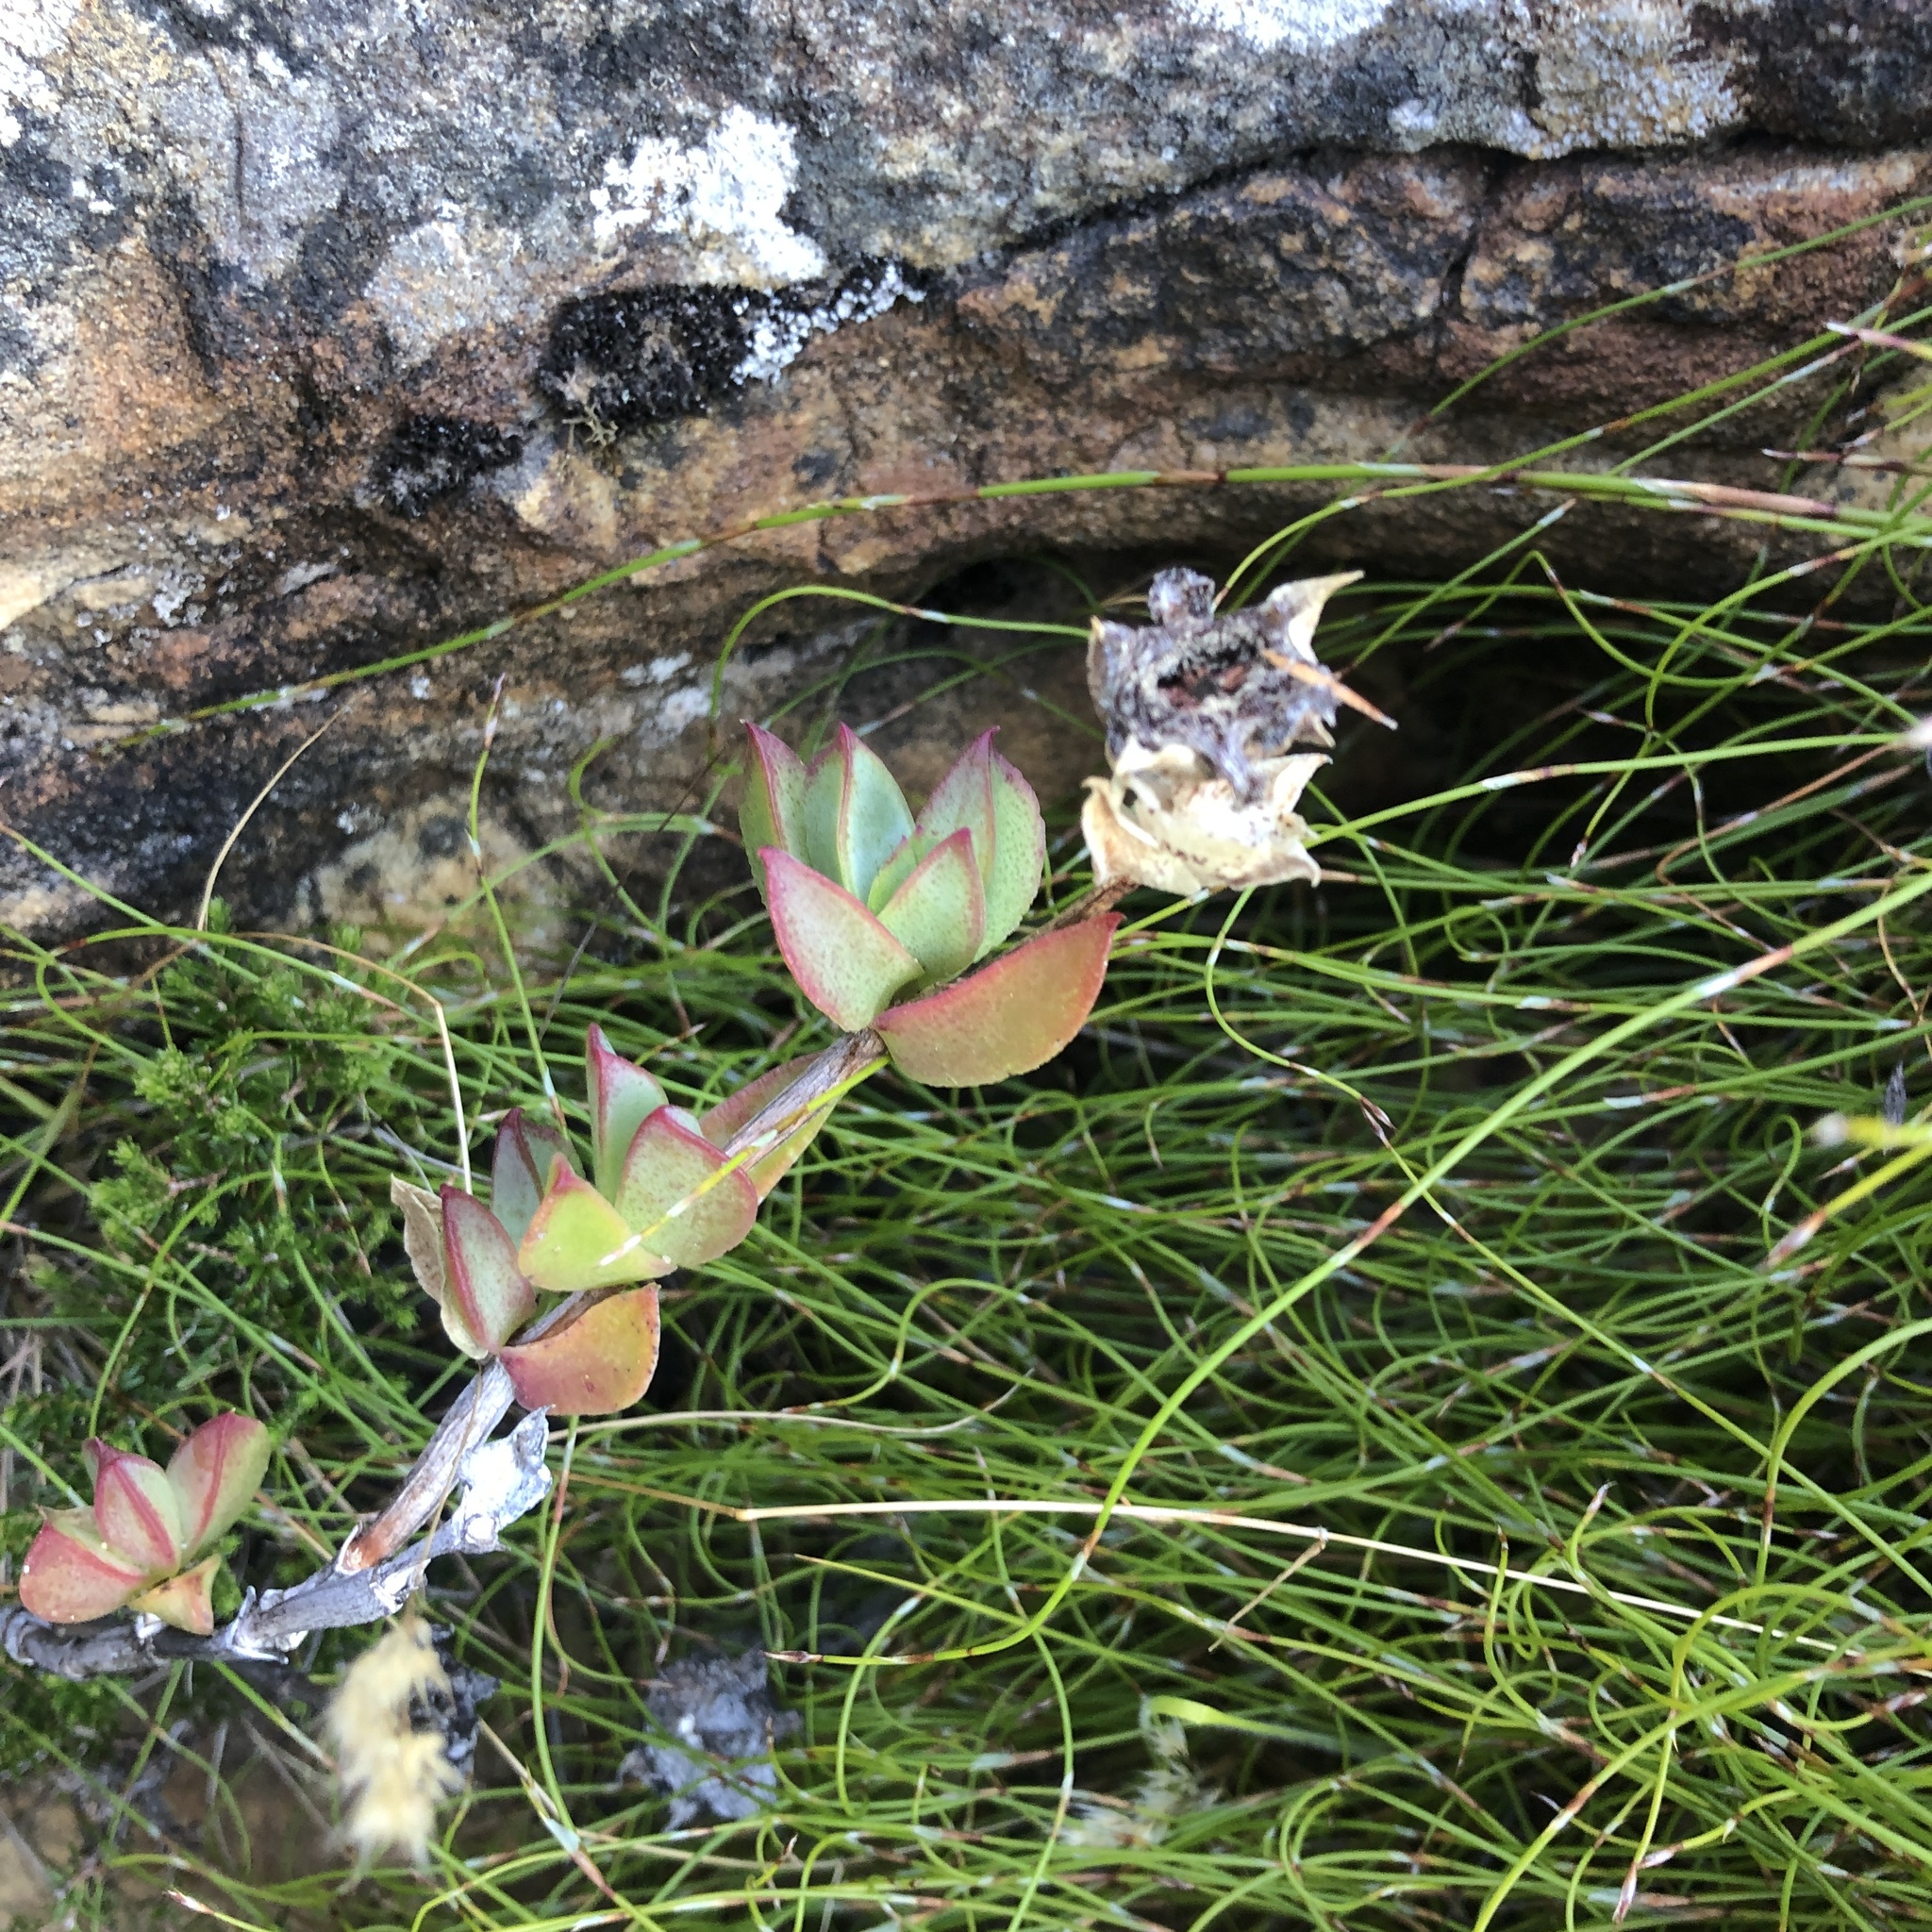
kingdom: Plantae
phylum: Tracheophyta
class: Magnoliopsida
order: Caryophyllales
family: Aizoaceae
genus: Erepsia
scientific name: Erepsia forficata
